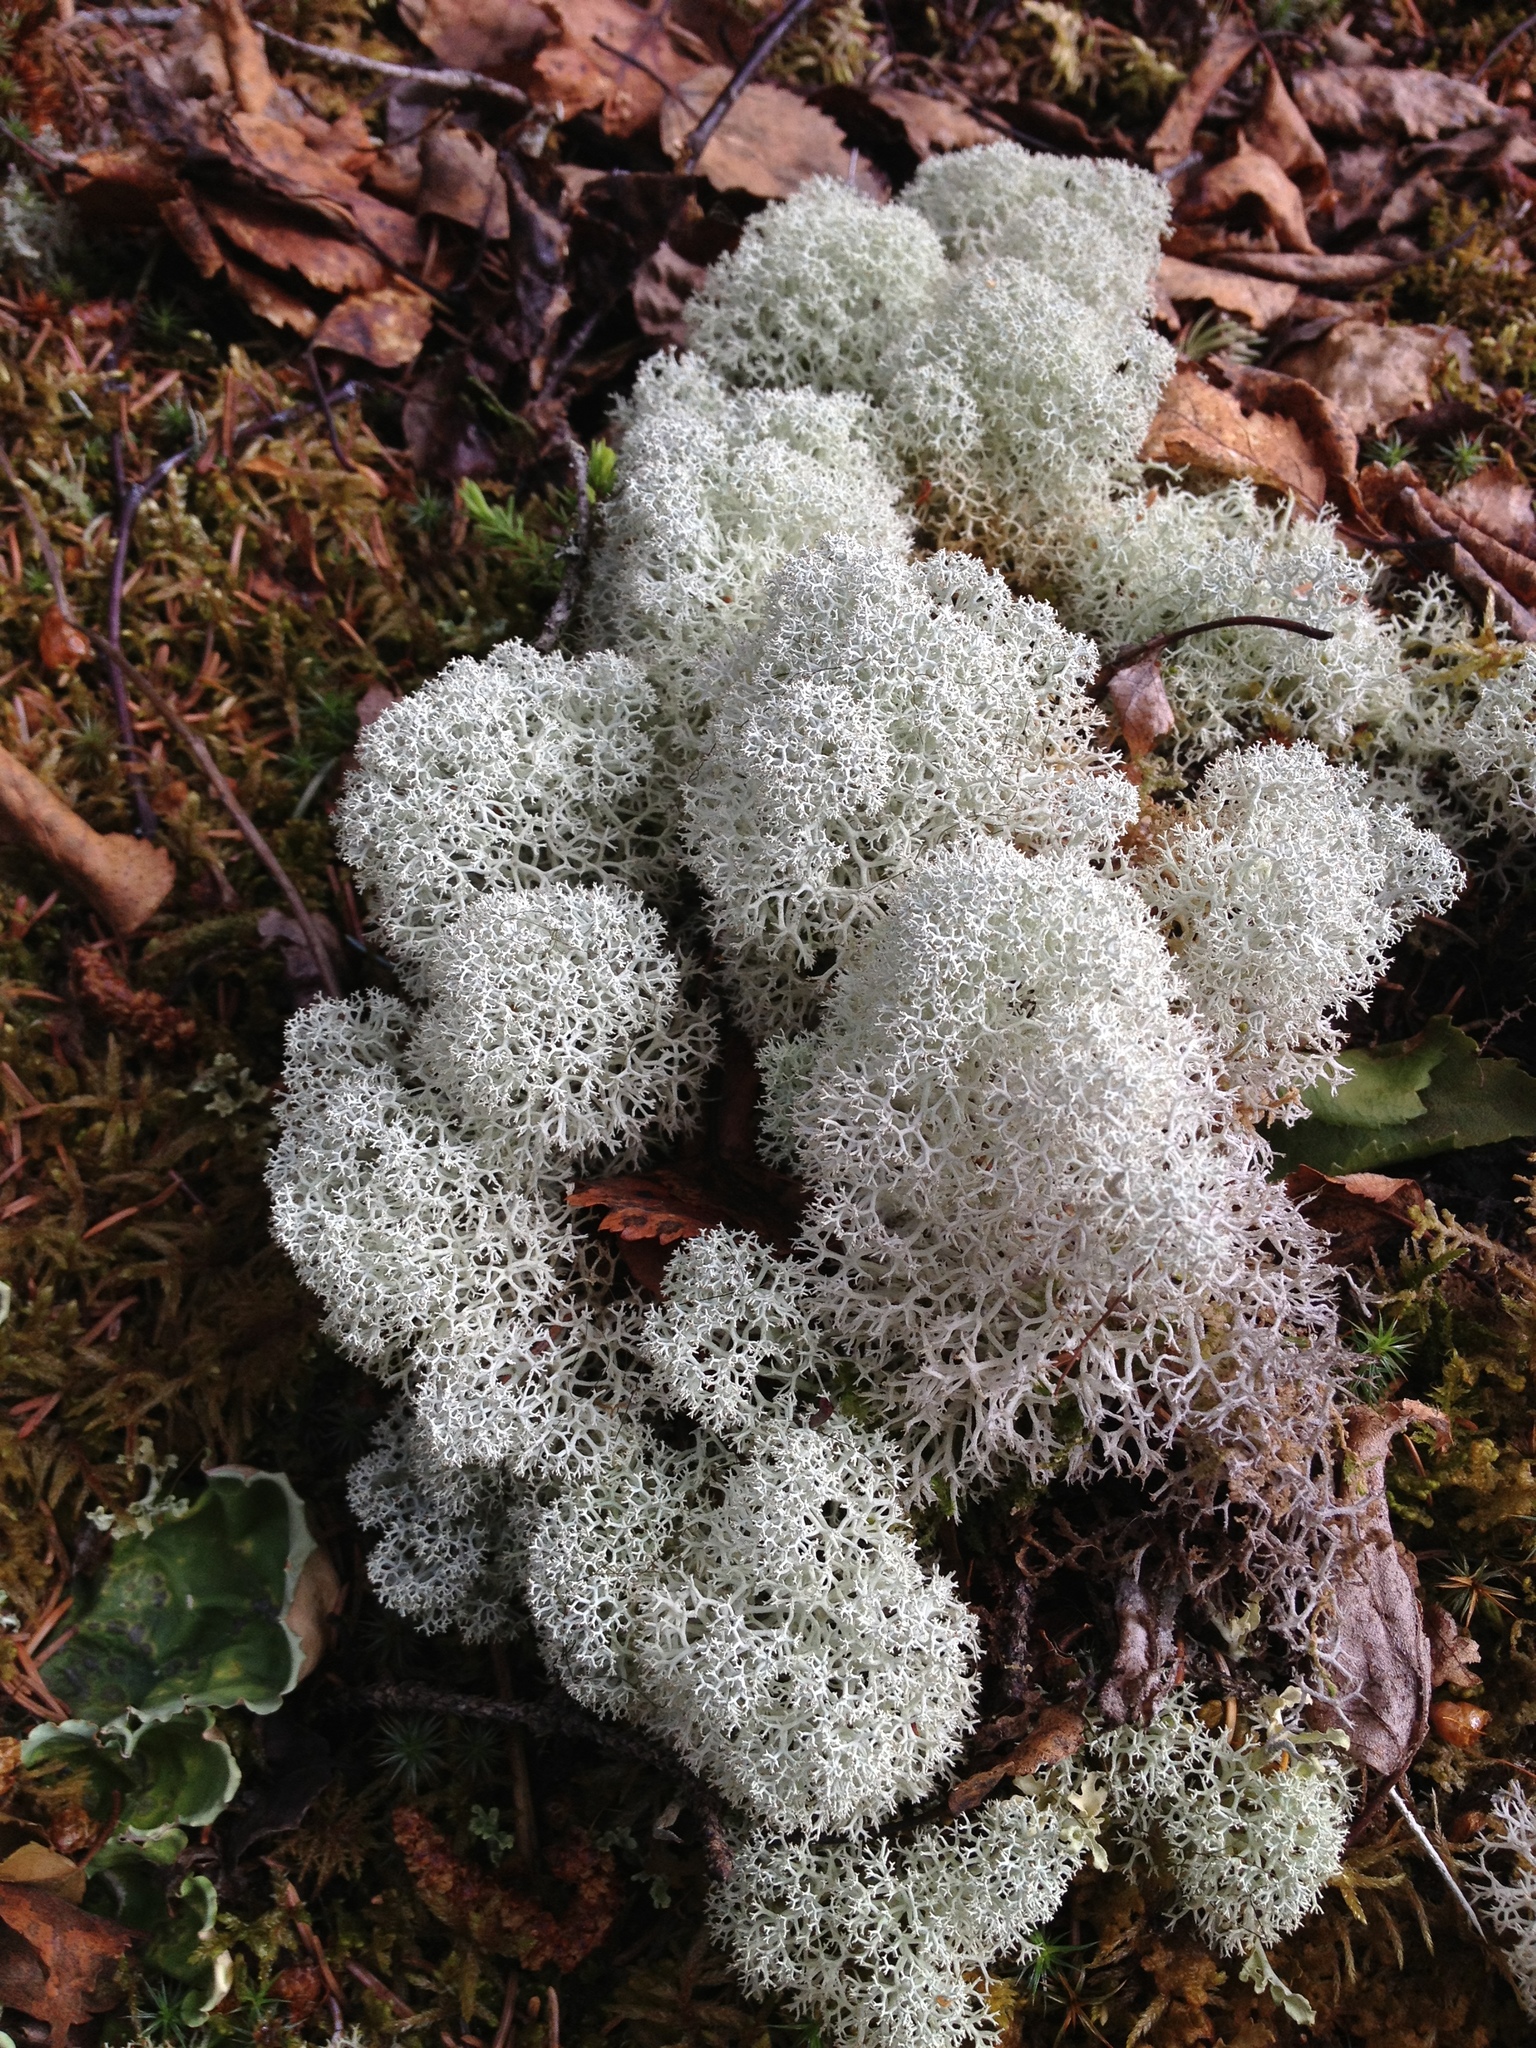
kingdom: Fungi
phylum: Ascomycota
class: Lecanoromycetes
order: Lecanorales
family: Cladoniaceae
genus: Cladonia
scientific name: Cladonia stellaris
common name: Star-tipped reindeer lichen
